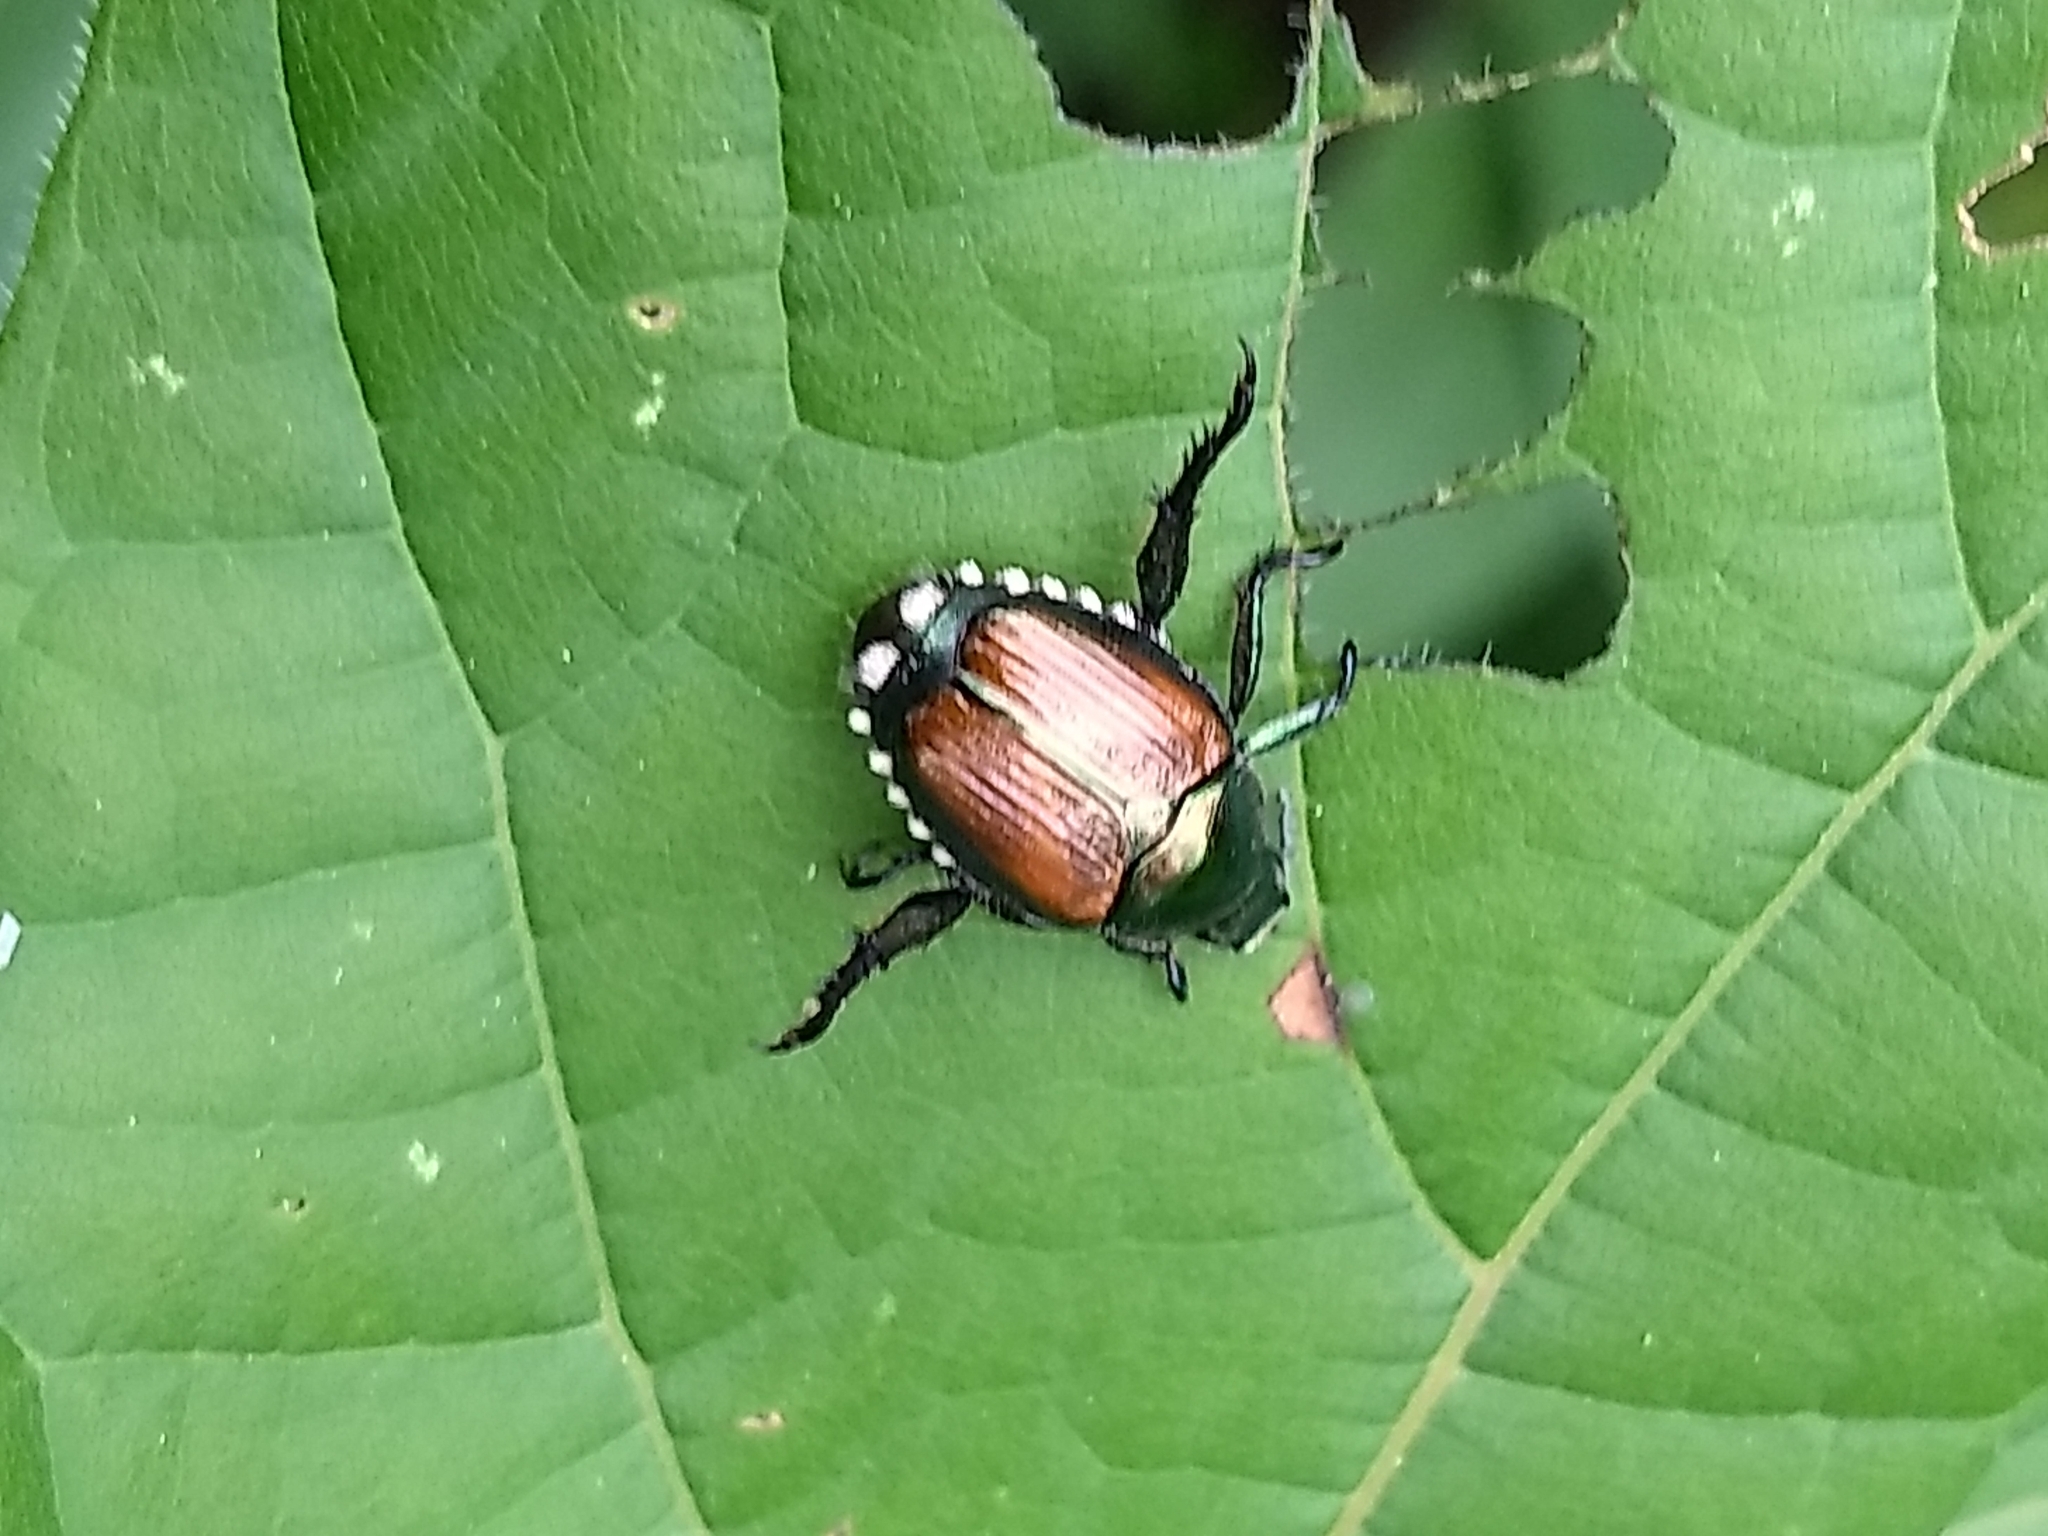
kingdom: Animalia
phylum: Arthropoda
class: Insecta
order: Coleoptera
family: Scarabaeidae
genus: Popillia
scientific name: Popillia japonica
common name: Japanese beetle
